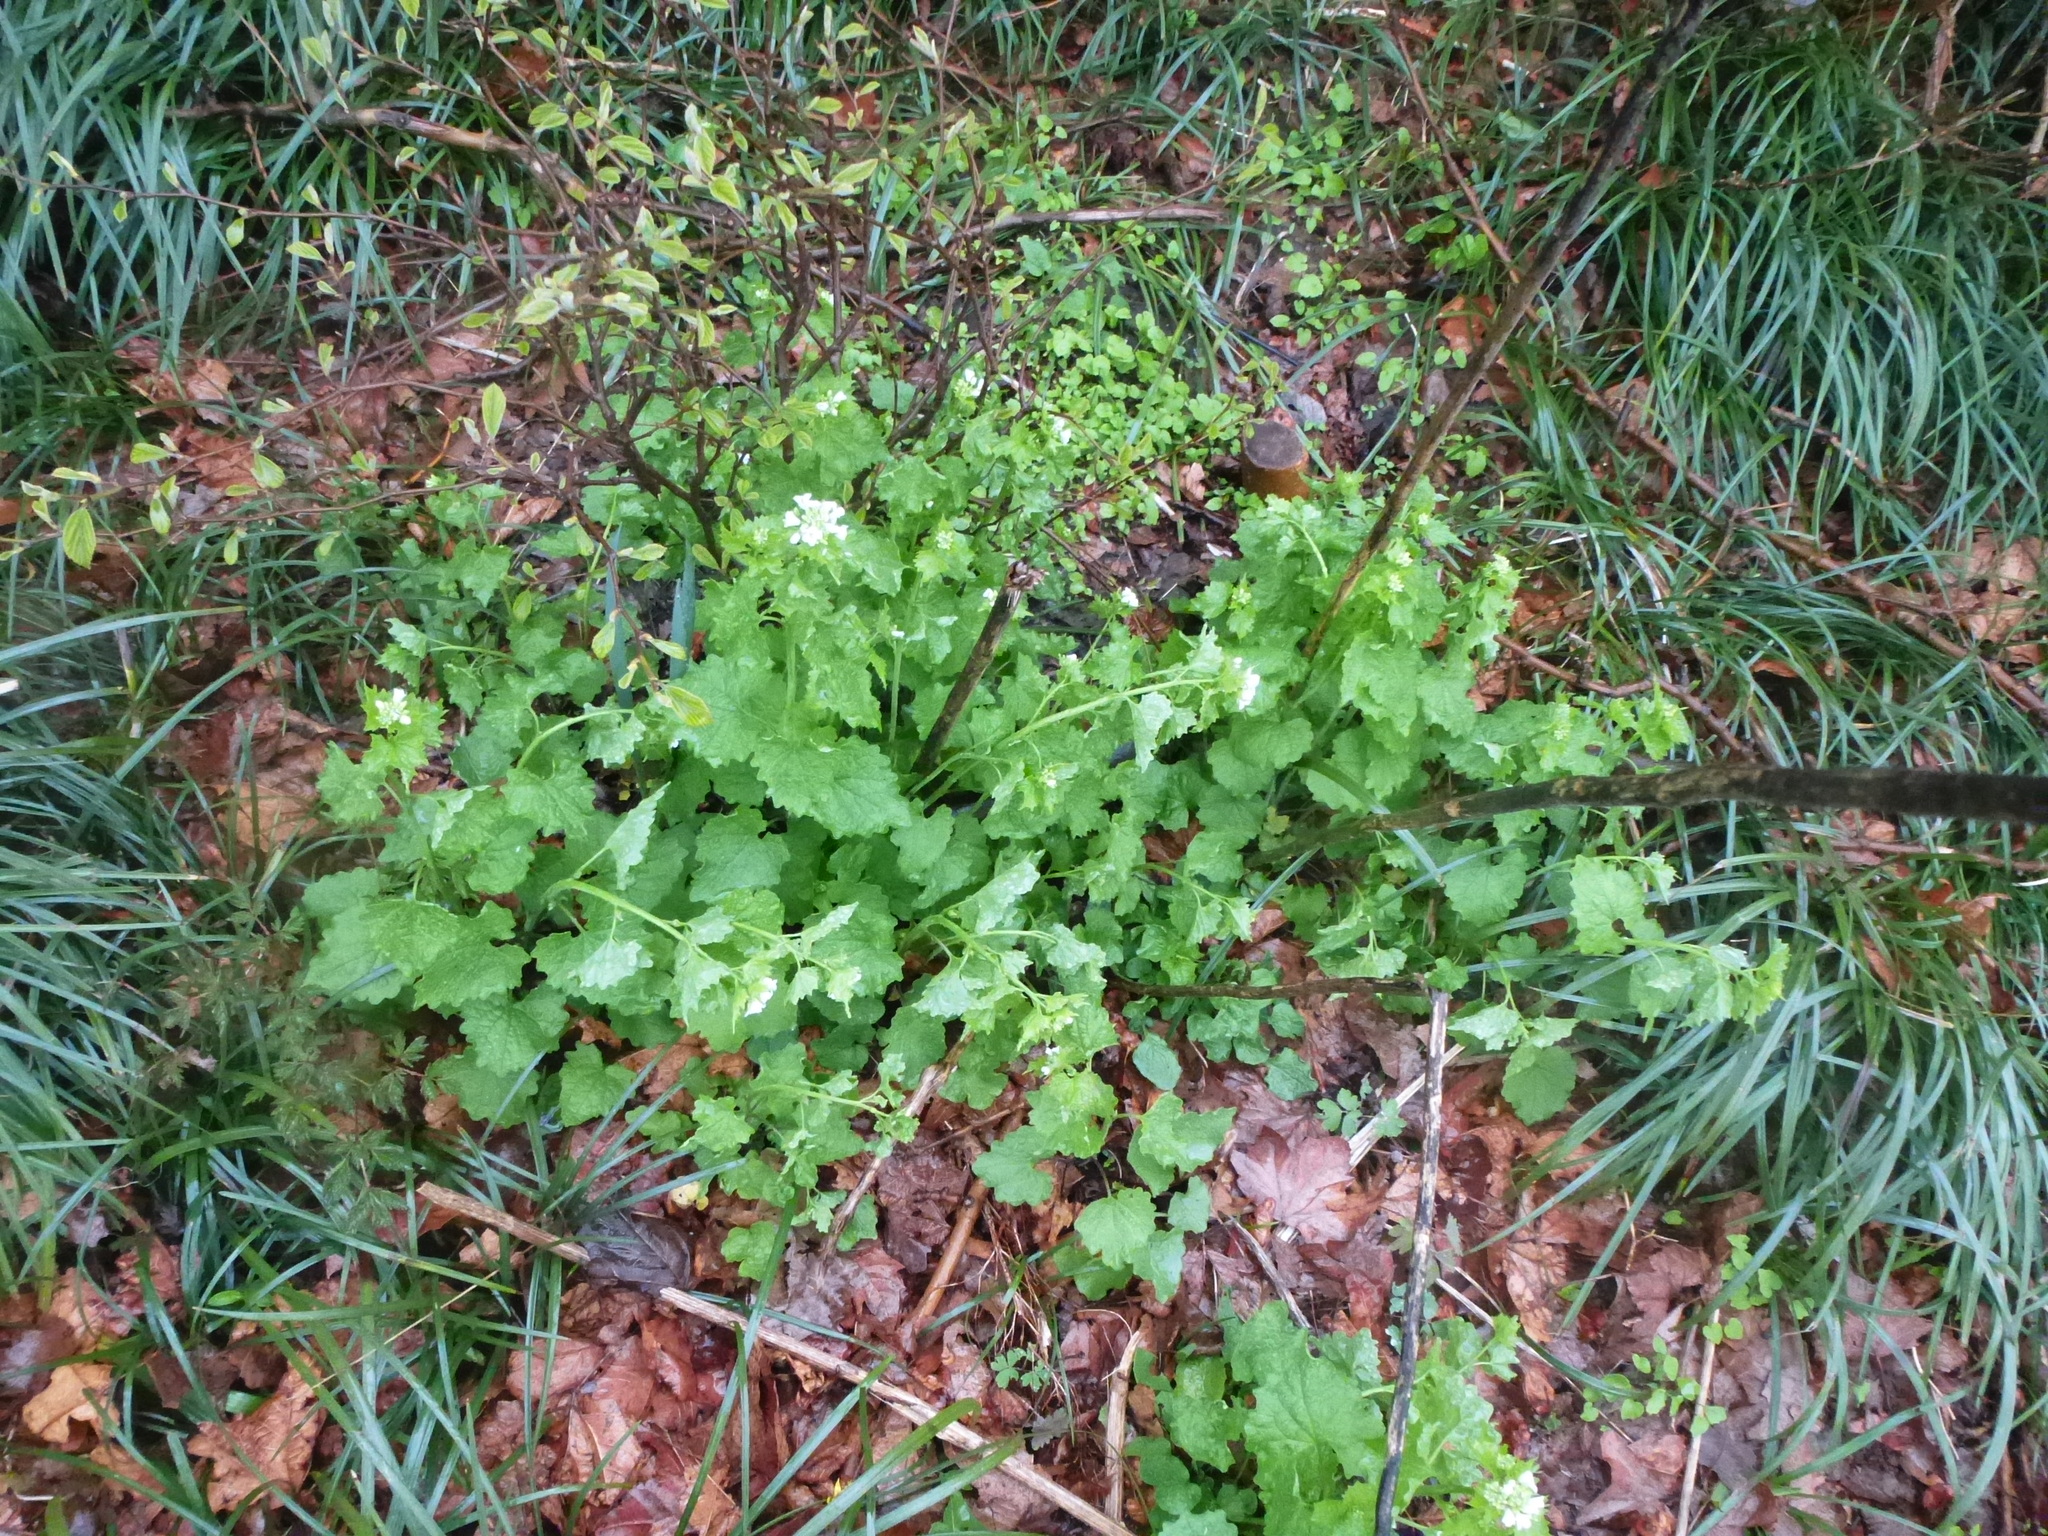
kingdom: Plantae
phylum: Tracheophyta
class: Magnoliopsida
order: Brassicales
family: Brassicaceae
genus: Alliaria
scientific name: Alliaria petiolata
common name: Garlic mustard
